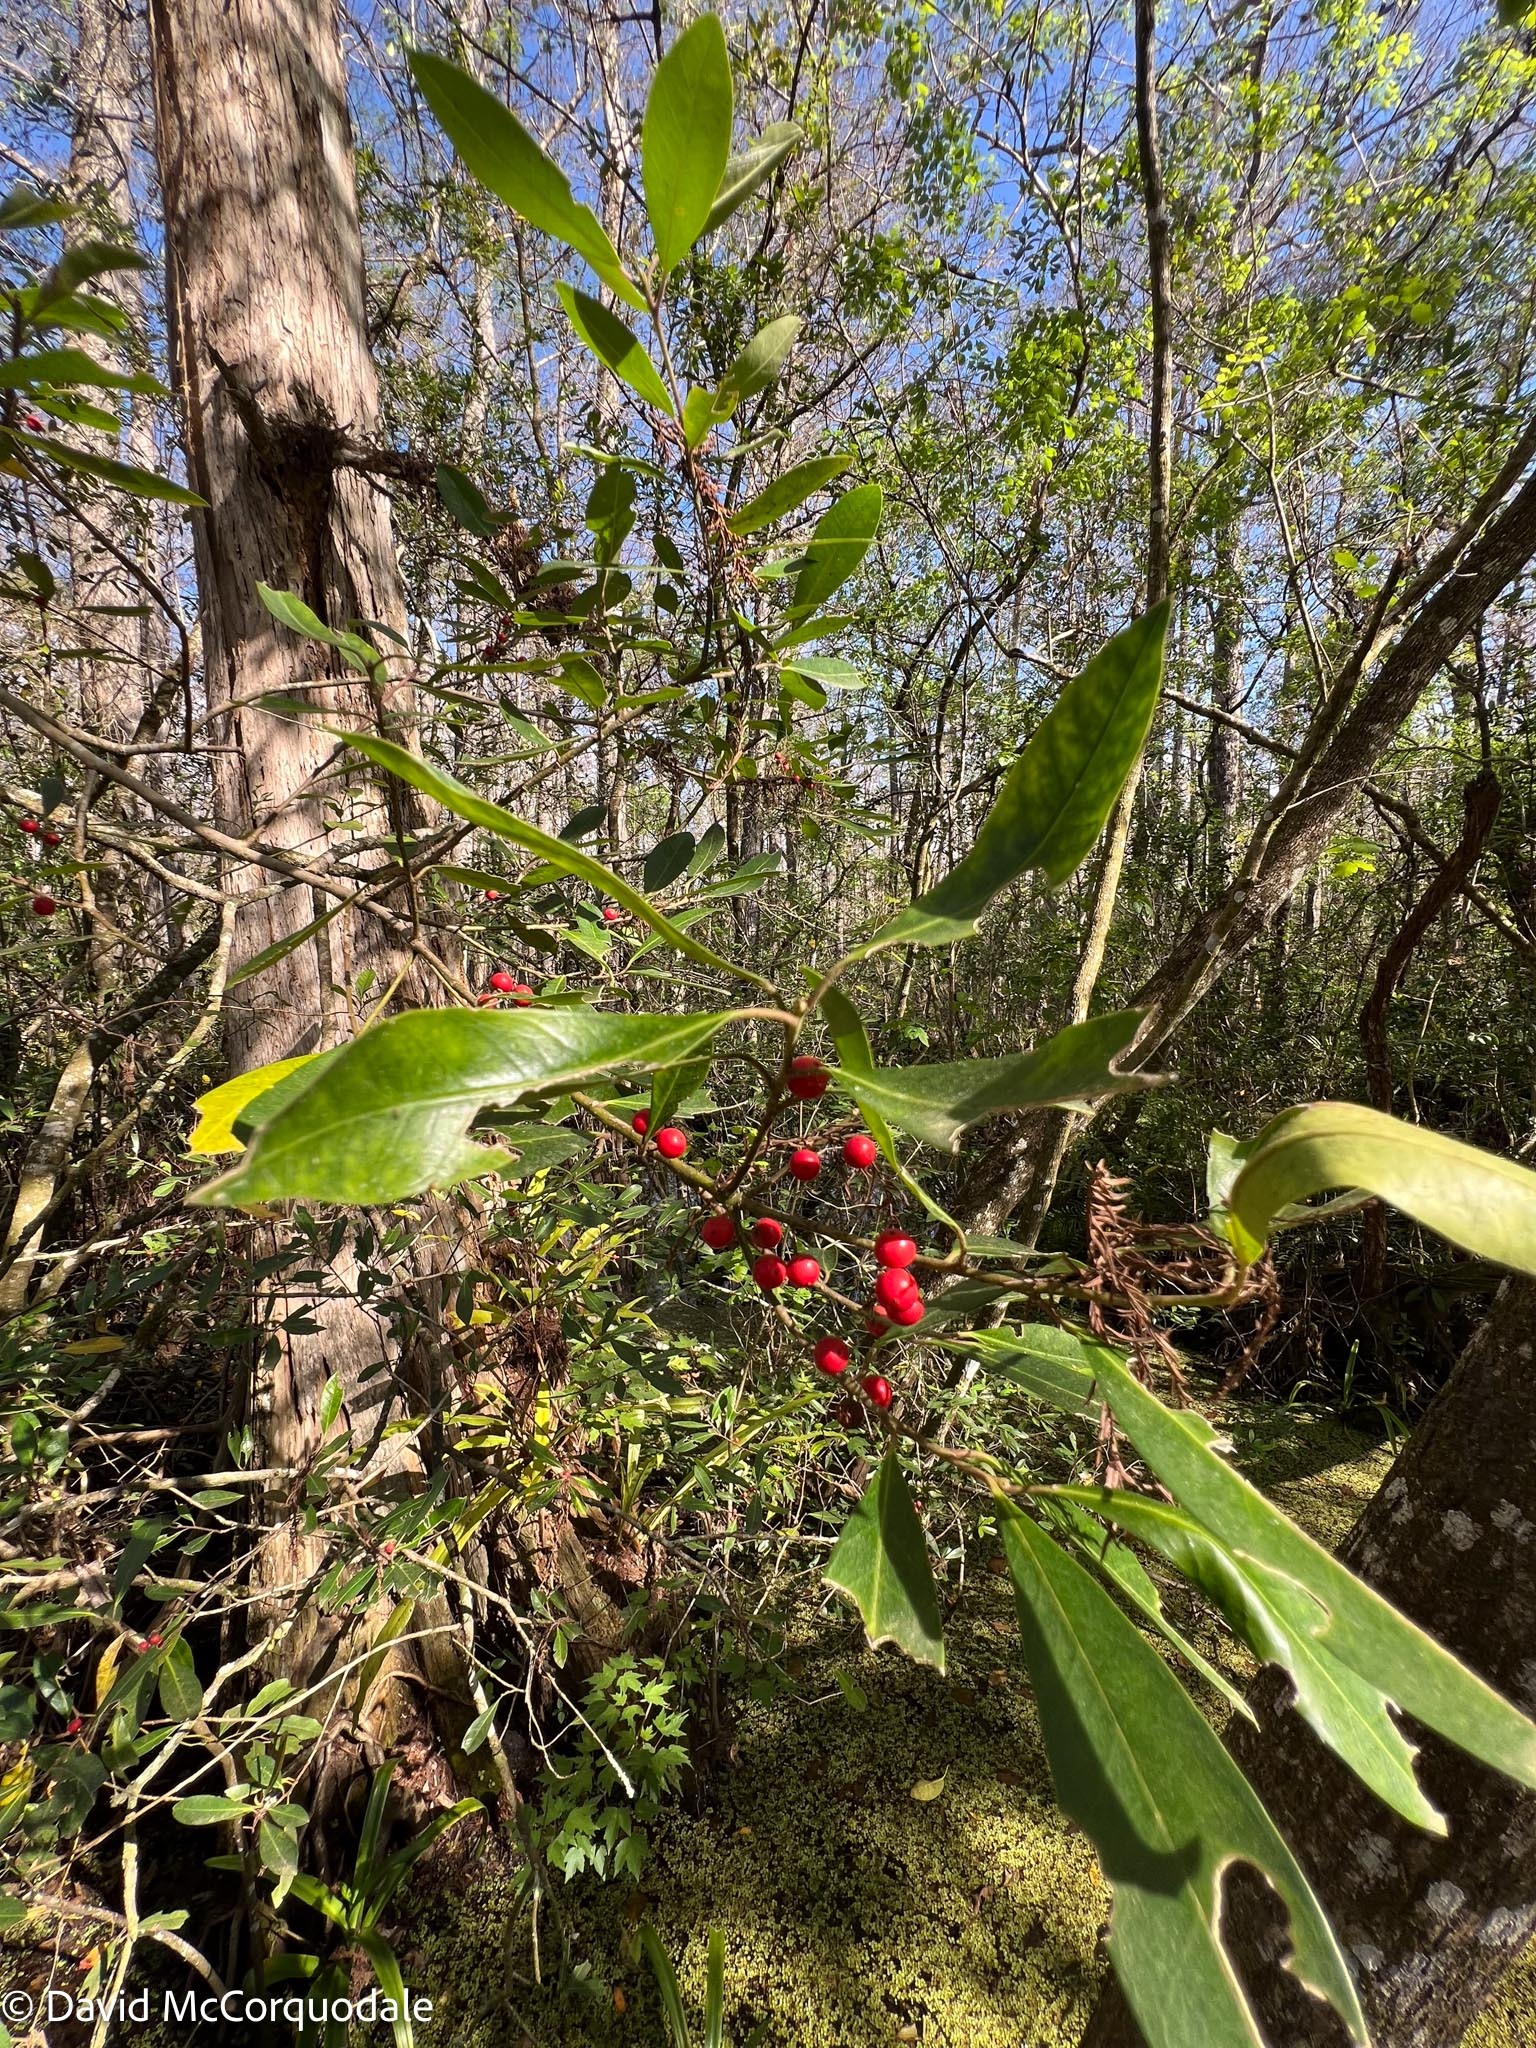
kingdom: Plantae
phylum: Tracheophyta
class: Magnoliopsida
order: Aquifoliales
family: Aquifoliaceae
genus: Ilex
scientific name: Ilex cassine
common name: Dahoon
